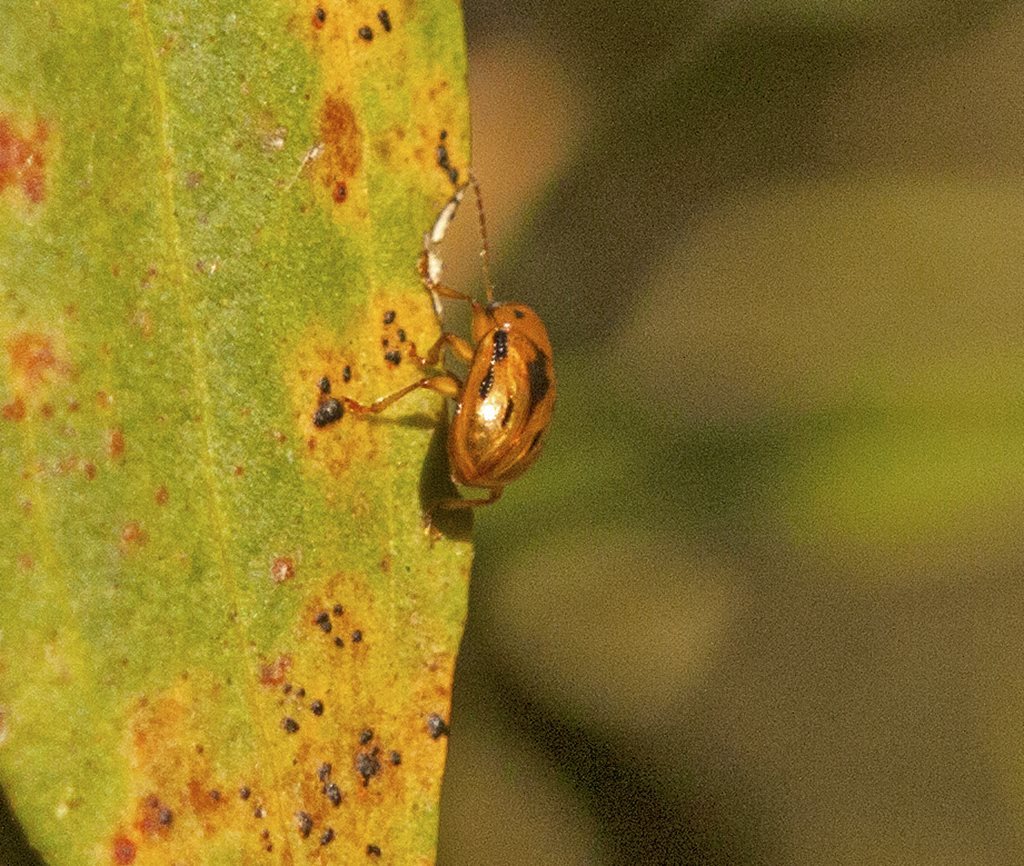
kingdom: Animalia
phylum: Arthropoda
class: Insecta
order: Coleoptera
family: Chrysomelidae
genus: Rhyparida
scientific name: Rhyparida
